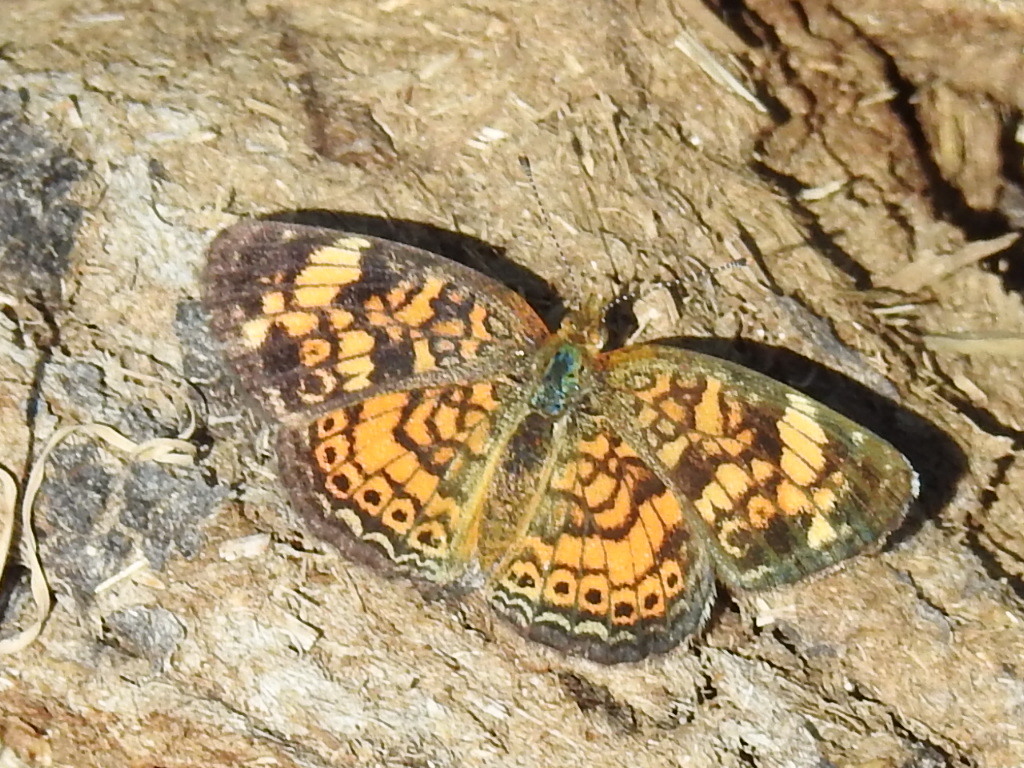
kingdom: Animalia
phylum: Arthropoda
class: Insecta
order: Lepidoptera
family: Nymphalidae
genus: Phyciodes
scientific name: Phyciodes tharos
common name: Pearl crescent
